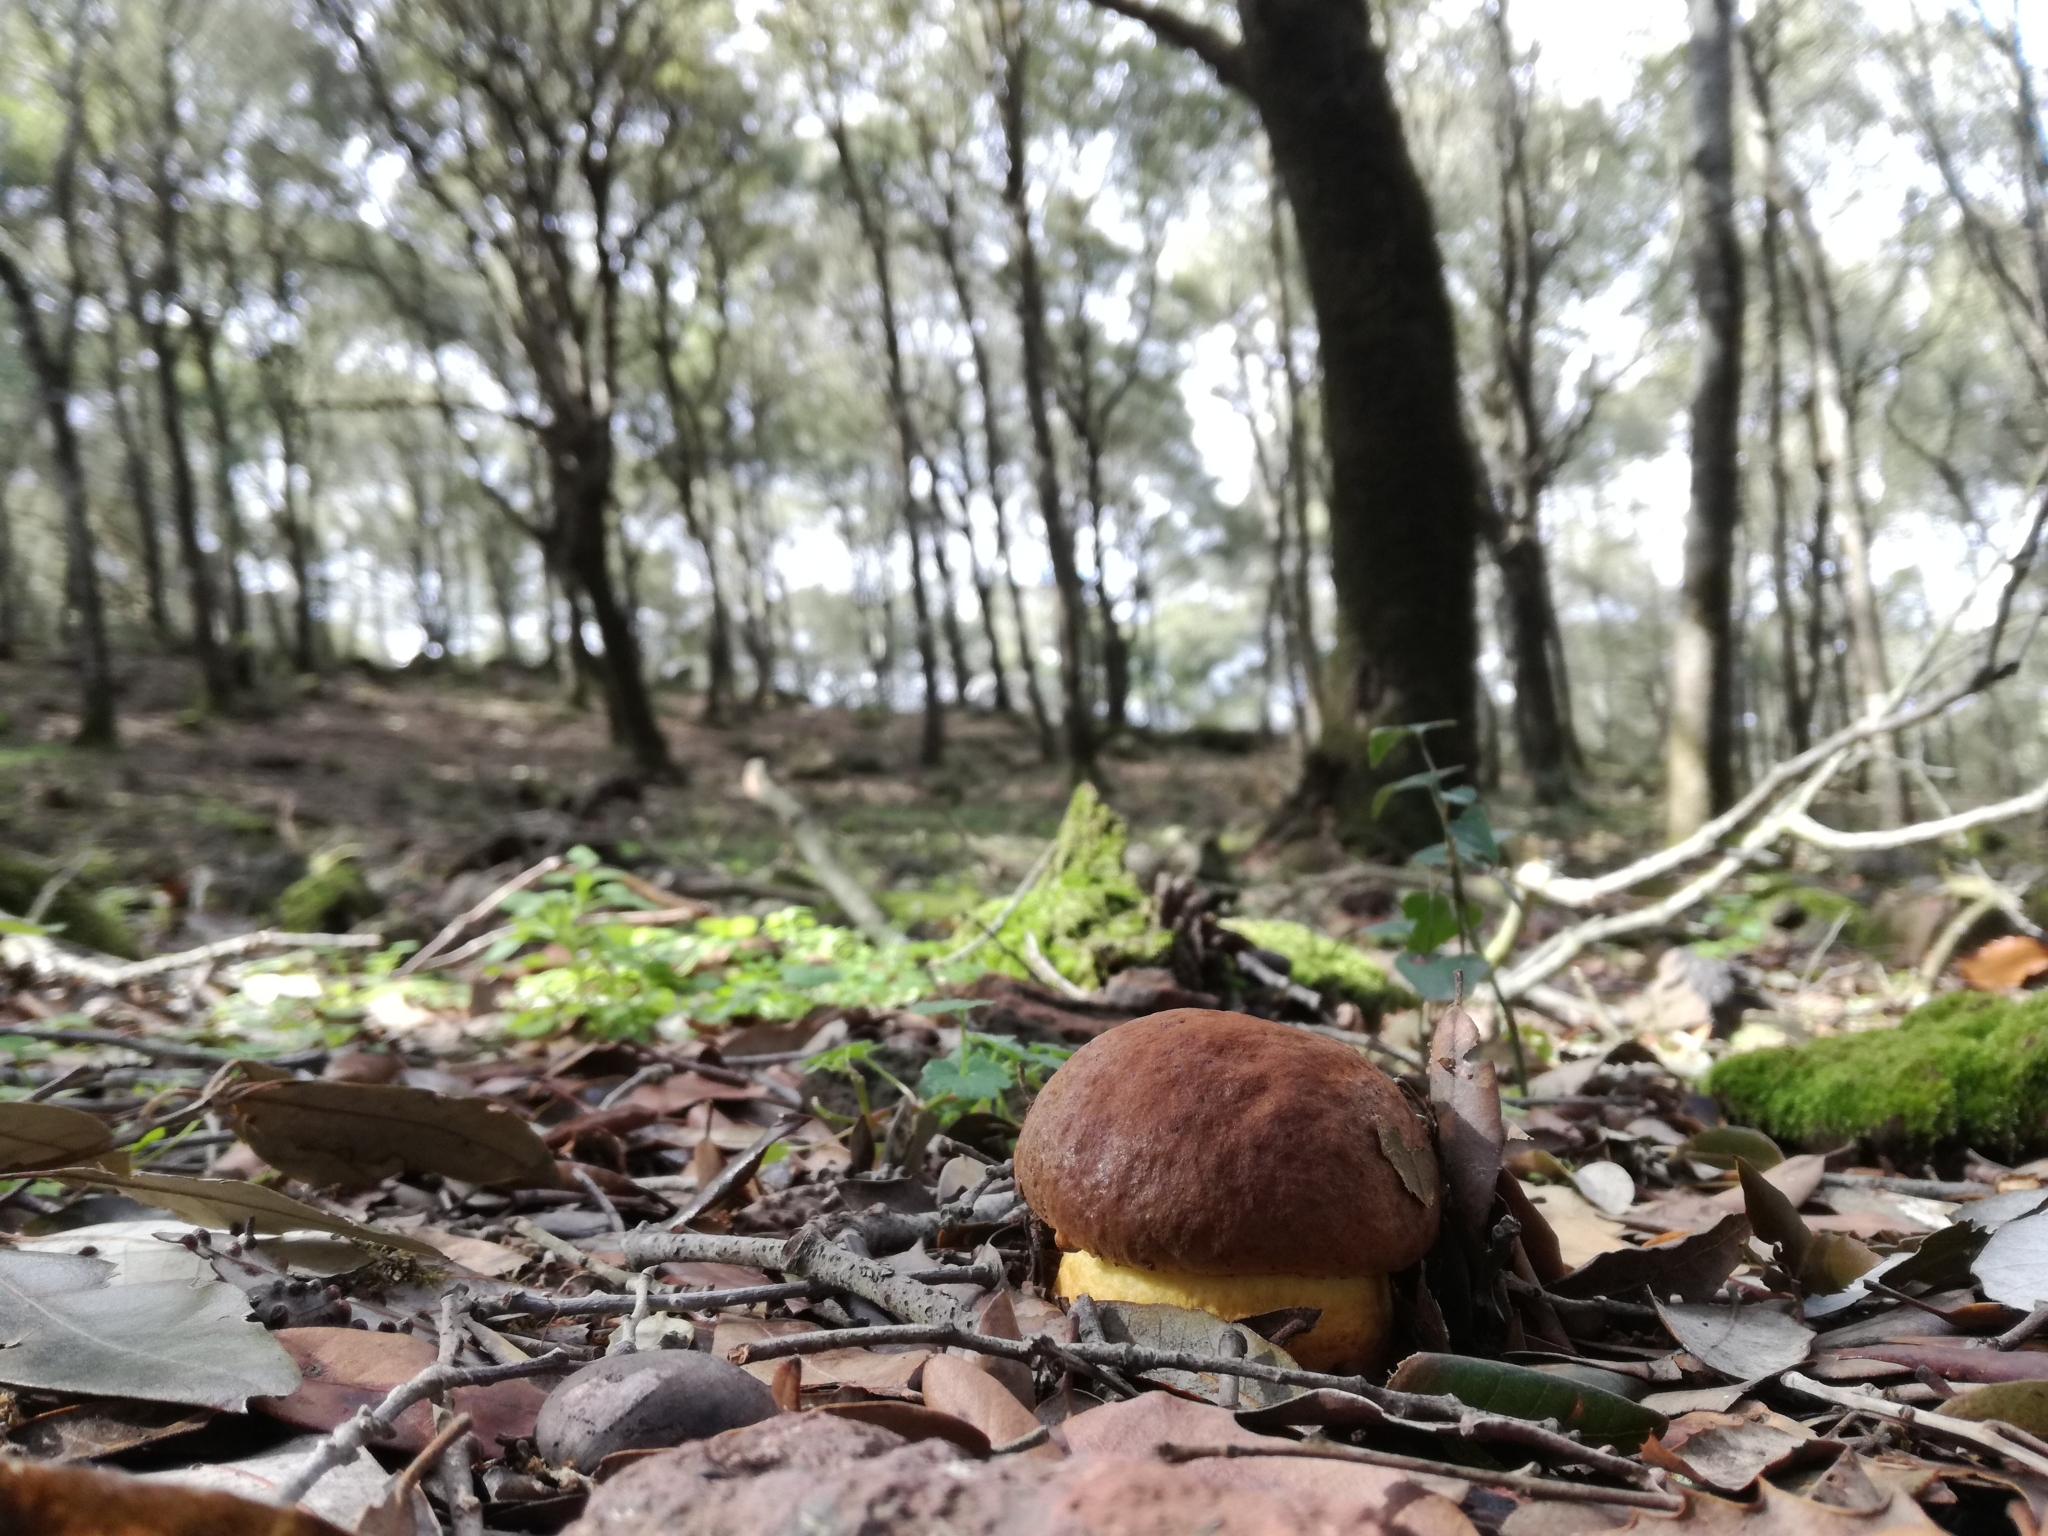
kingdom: Fungi
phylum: Basidiomycota
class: Agaricomycetes
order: Boletales
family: Boletaceae
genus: Leccinellum
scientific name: Leccinellum lepidum
